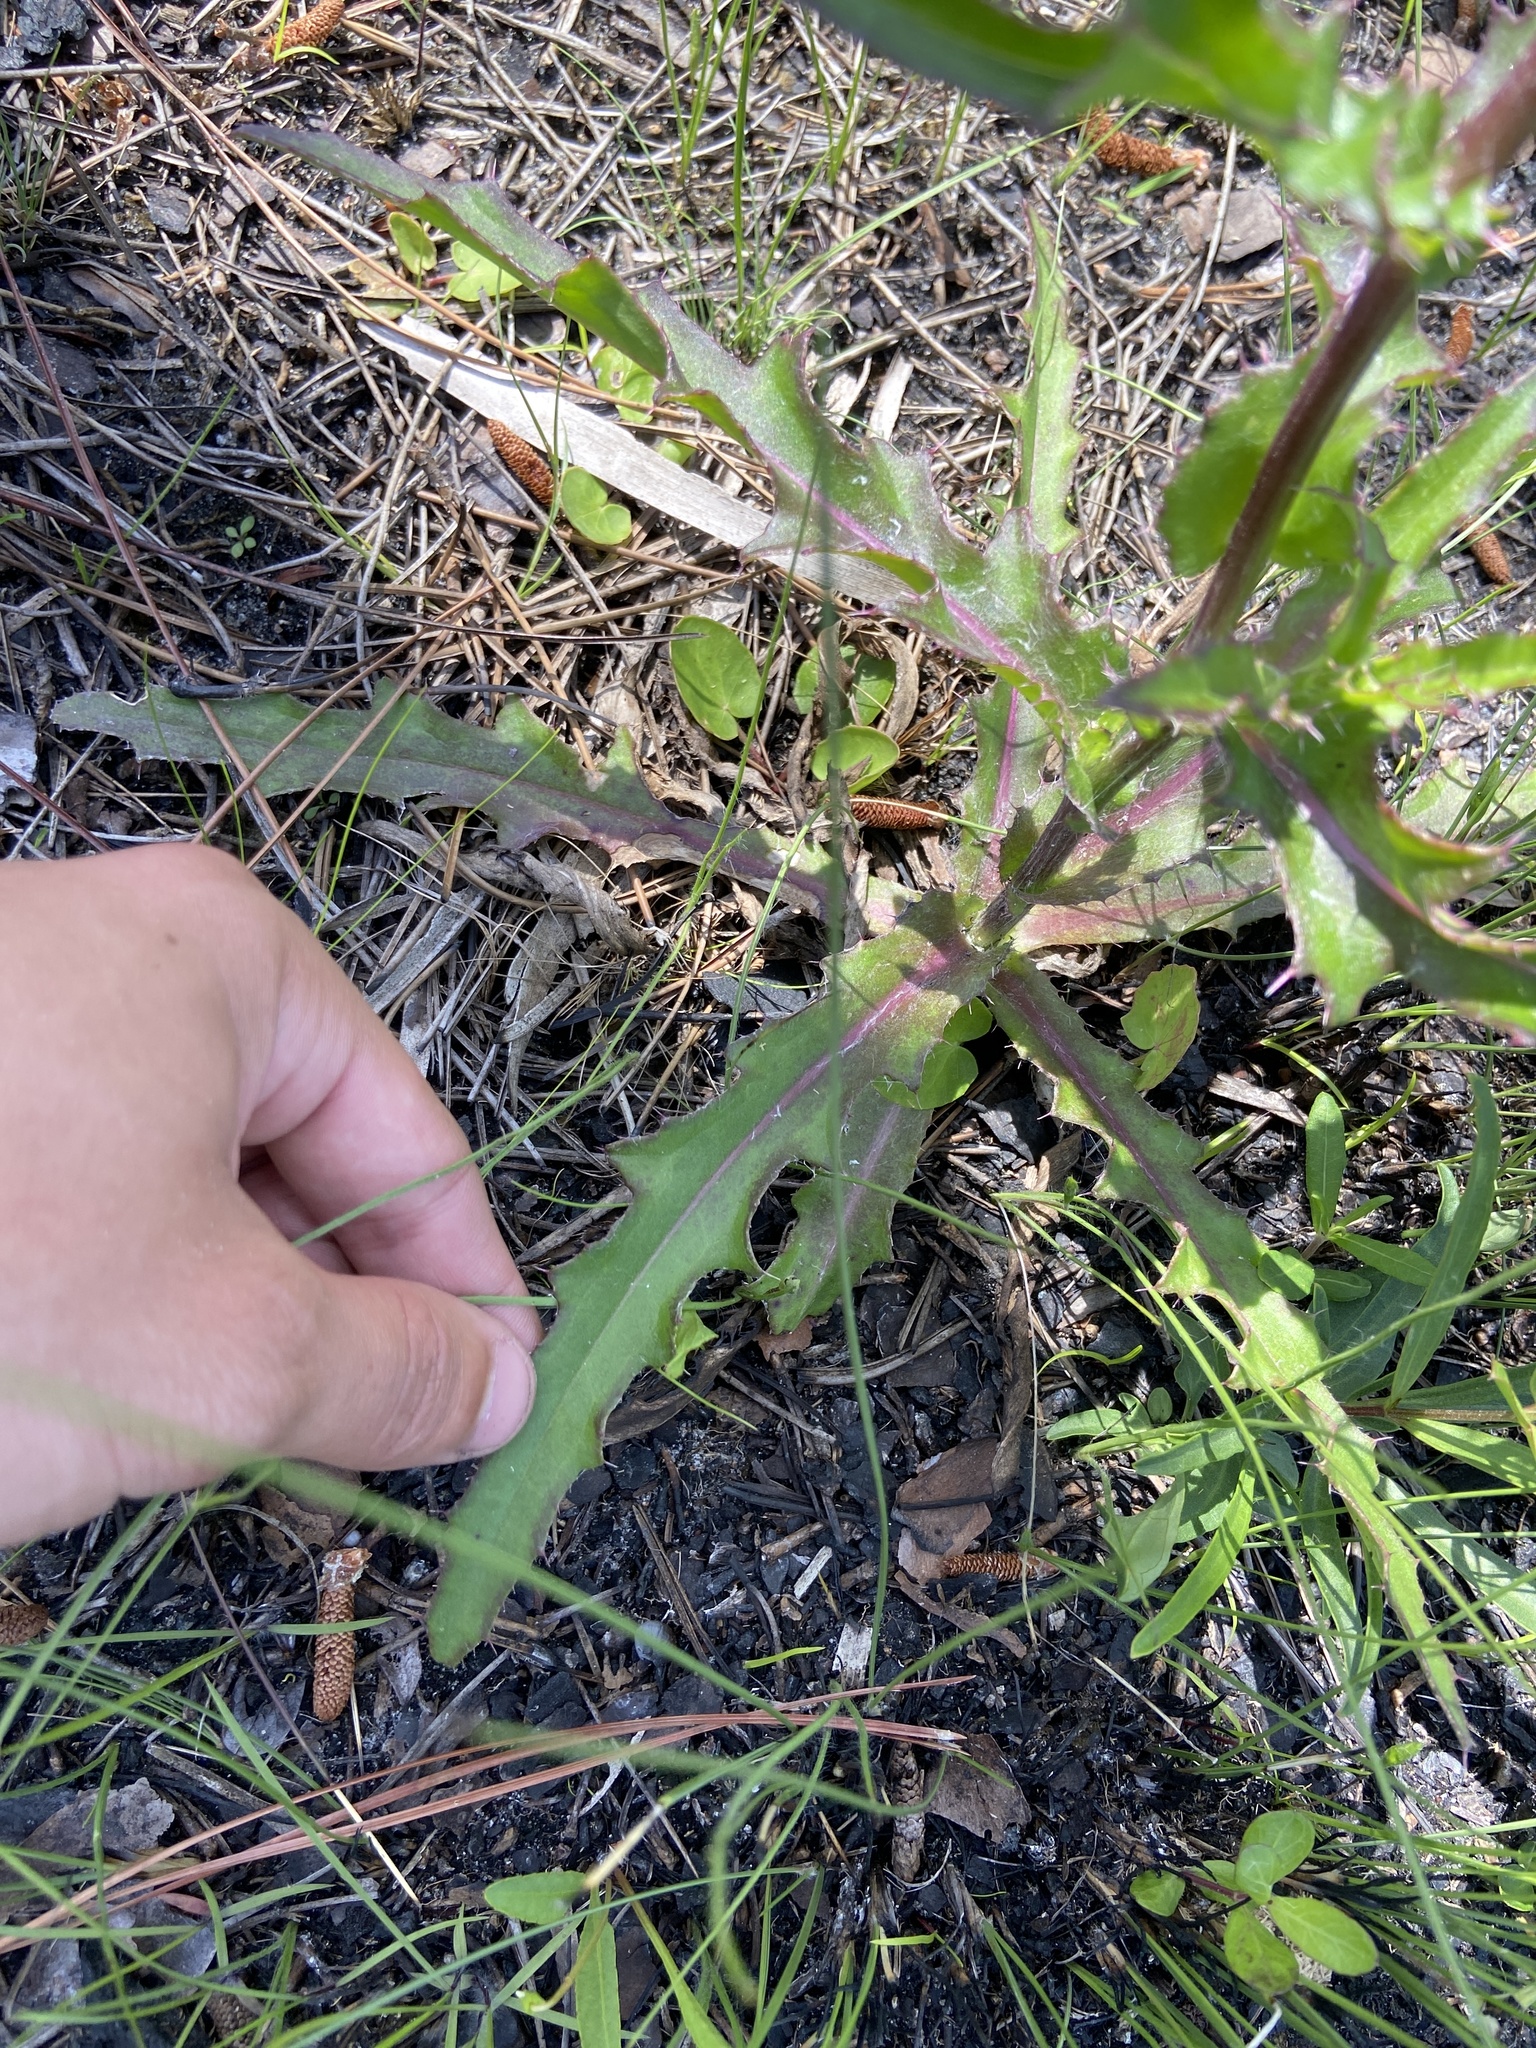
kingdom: Plantae
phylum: Tracheophyta
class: Magnoliopsida
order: Asterales
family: Asteraceae
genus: Cirsium
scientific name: Cirsium horridulum
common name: Bristly thistle
